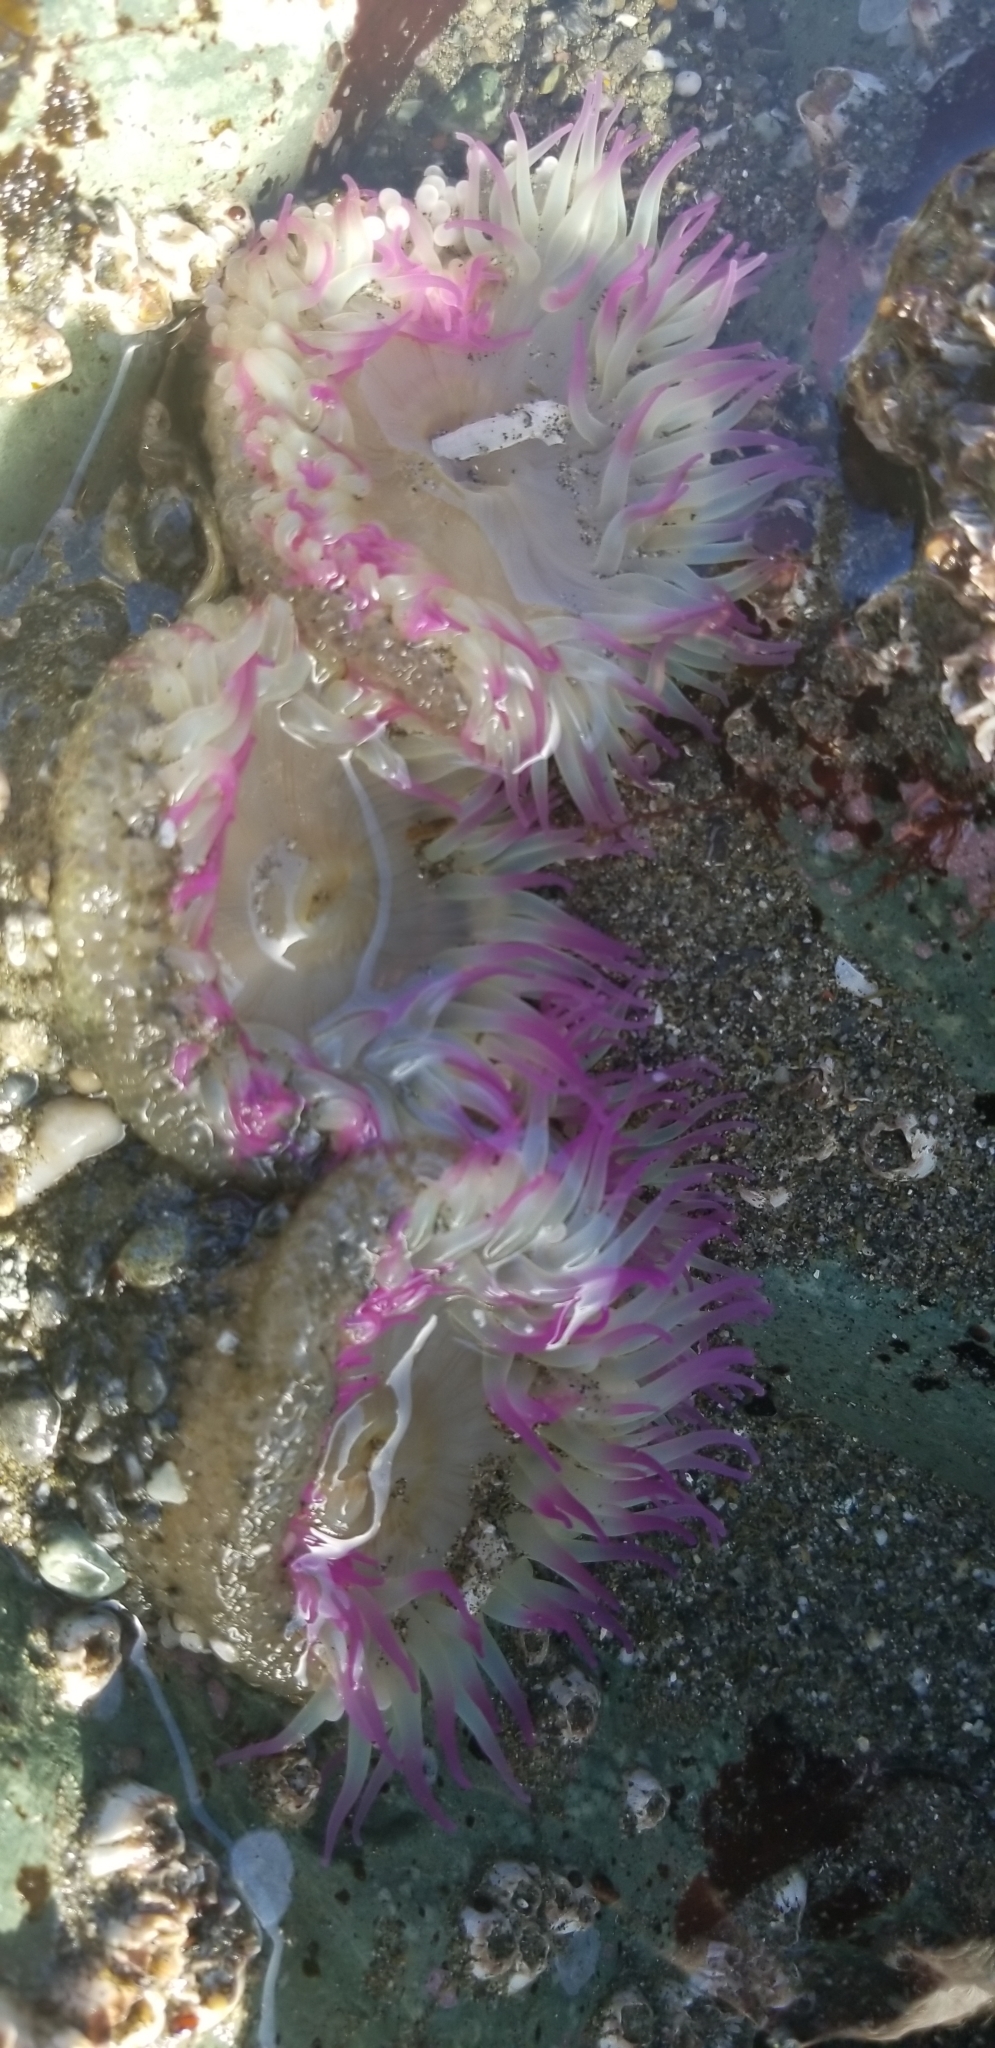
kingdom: Animalia
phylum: Cnidaria
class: Anthozoa
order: Actiniaria
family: Actiniidae
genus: Anthopleura
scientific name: Anthopleura elegantissima
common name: Clonal anemone
